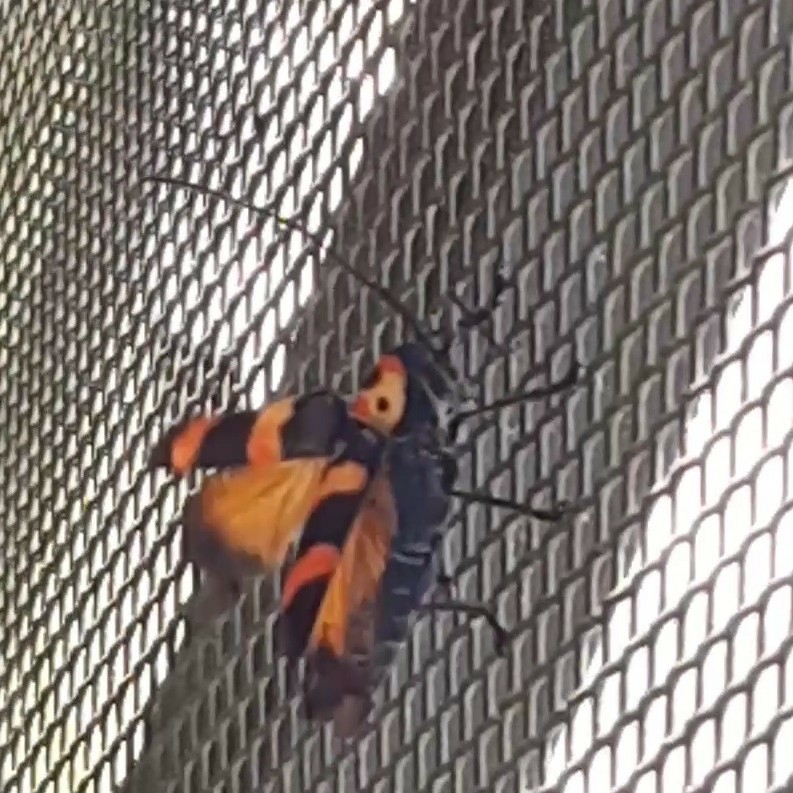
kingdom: Animalia
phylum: Arthropoda
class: Insecta
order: Coleoptera
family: Cerambycidae
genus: Oedudes
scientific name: Oedudes bifasciatus
